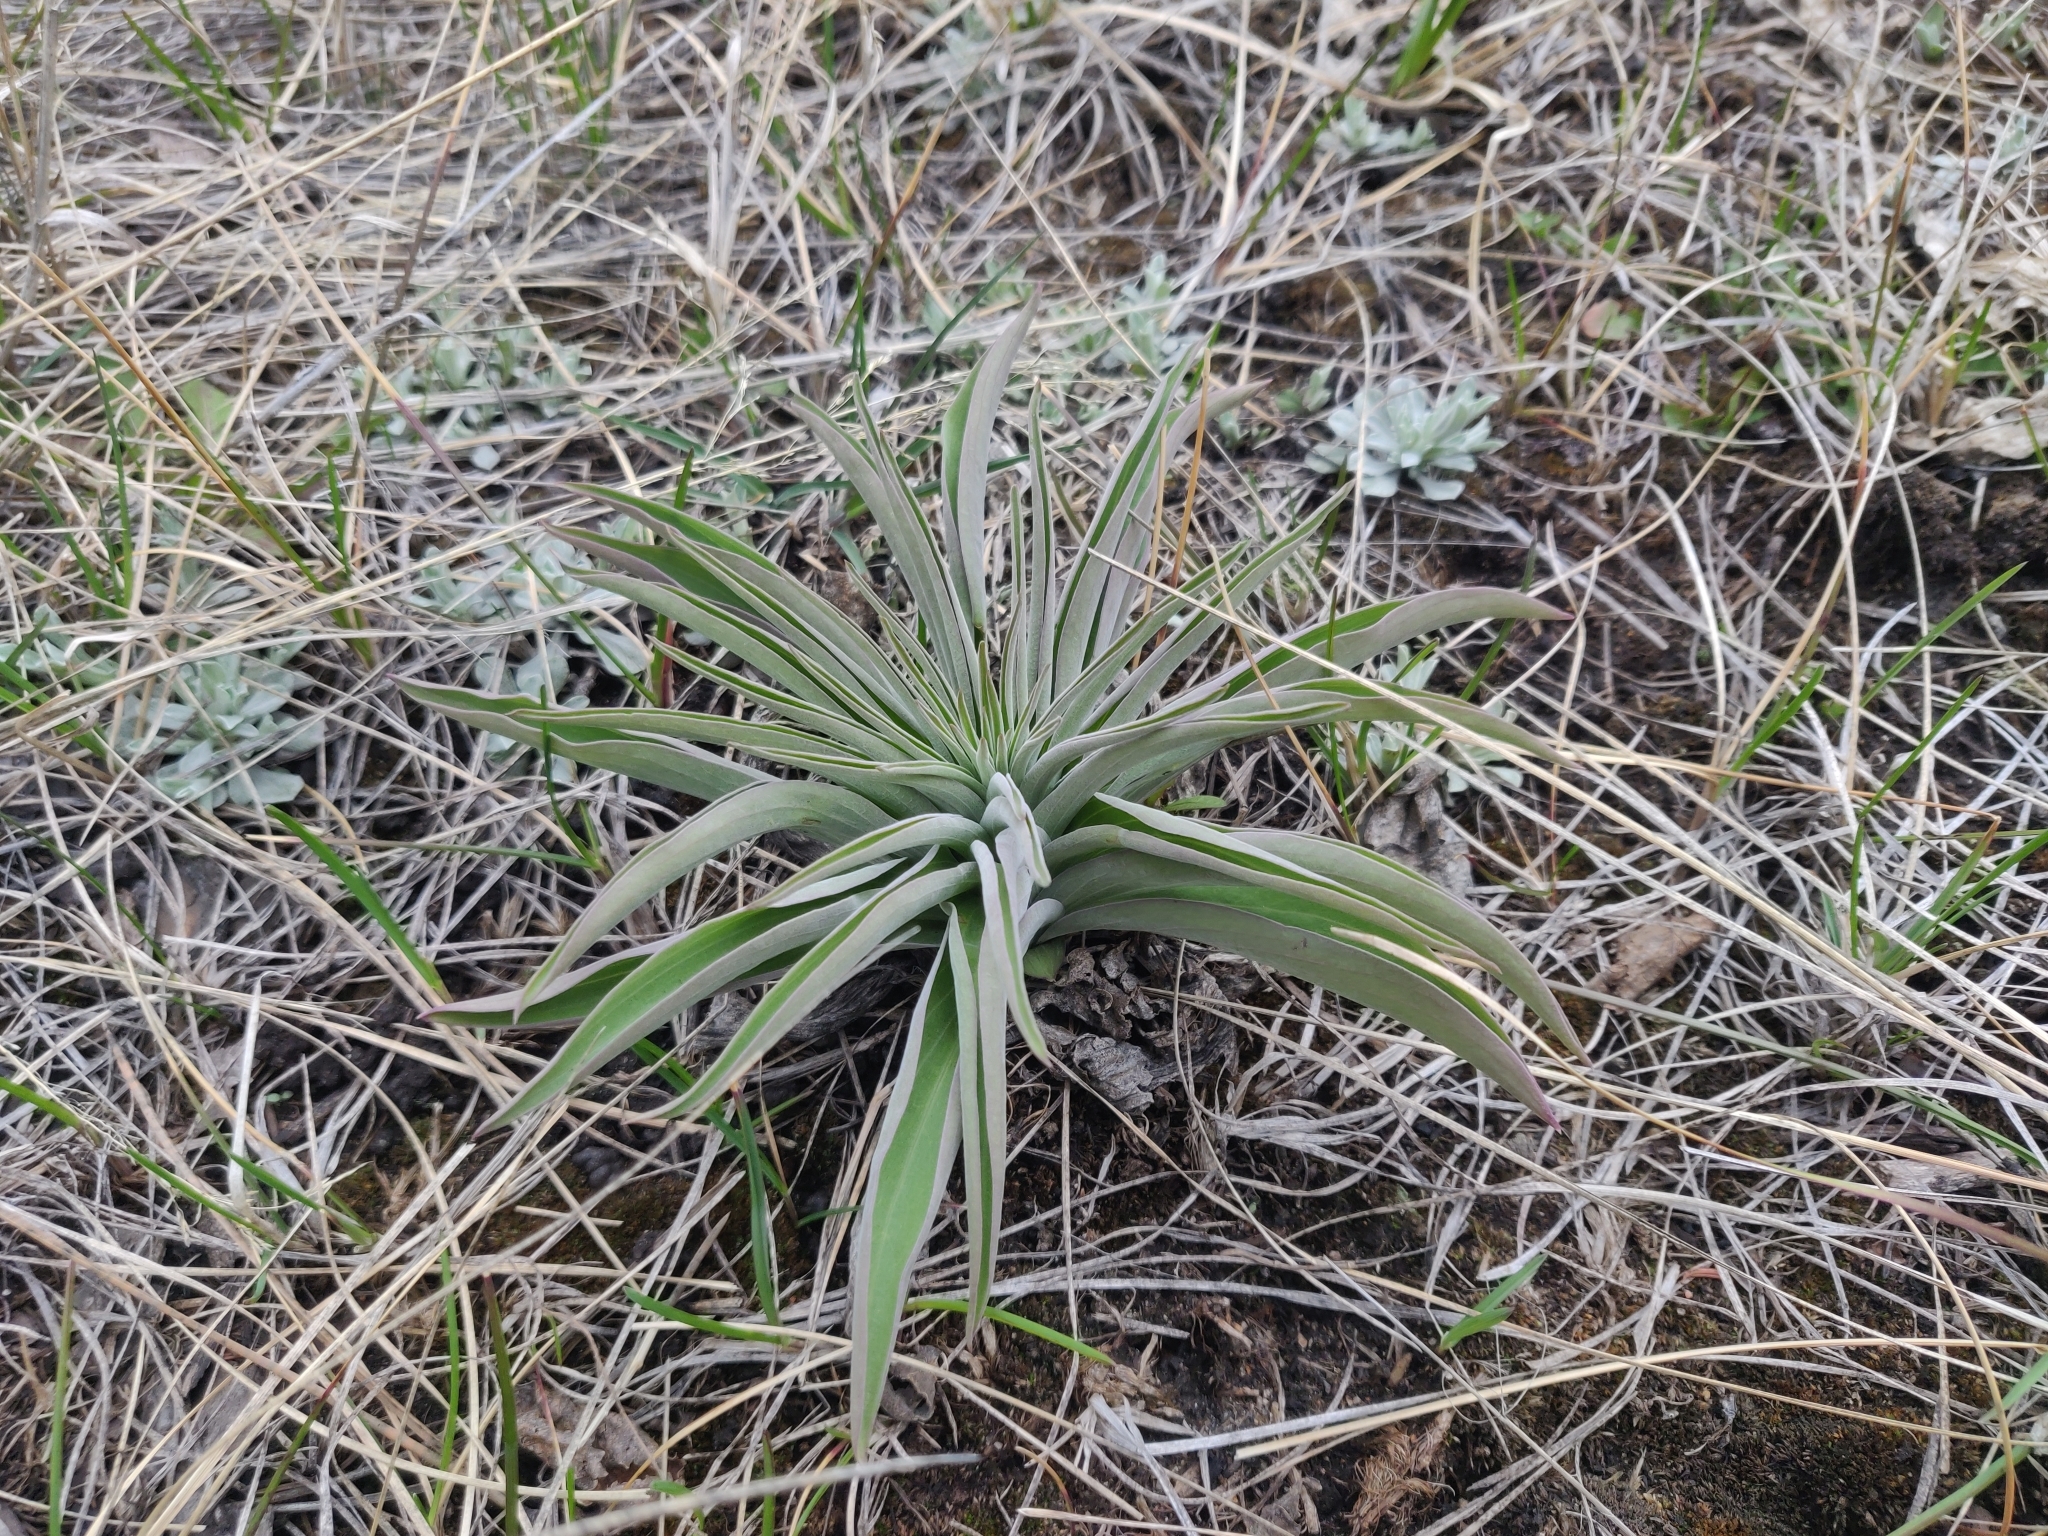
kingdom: Plantae
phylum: Tracheophyta
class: Magnoliopsida
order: Gentianales
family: Gentianaceae
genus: Frasera
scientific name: Frasera speciosa
